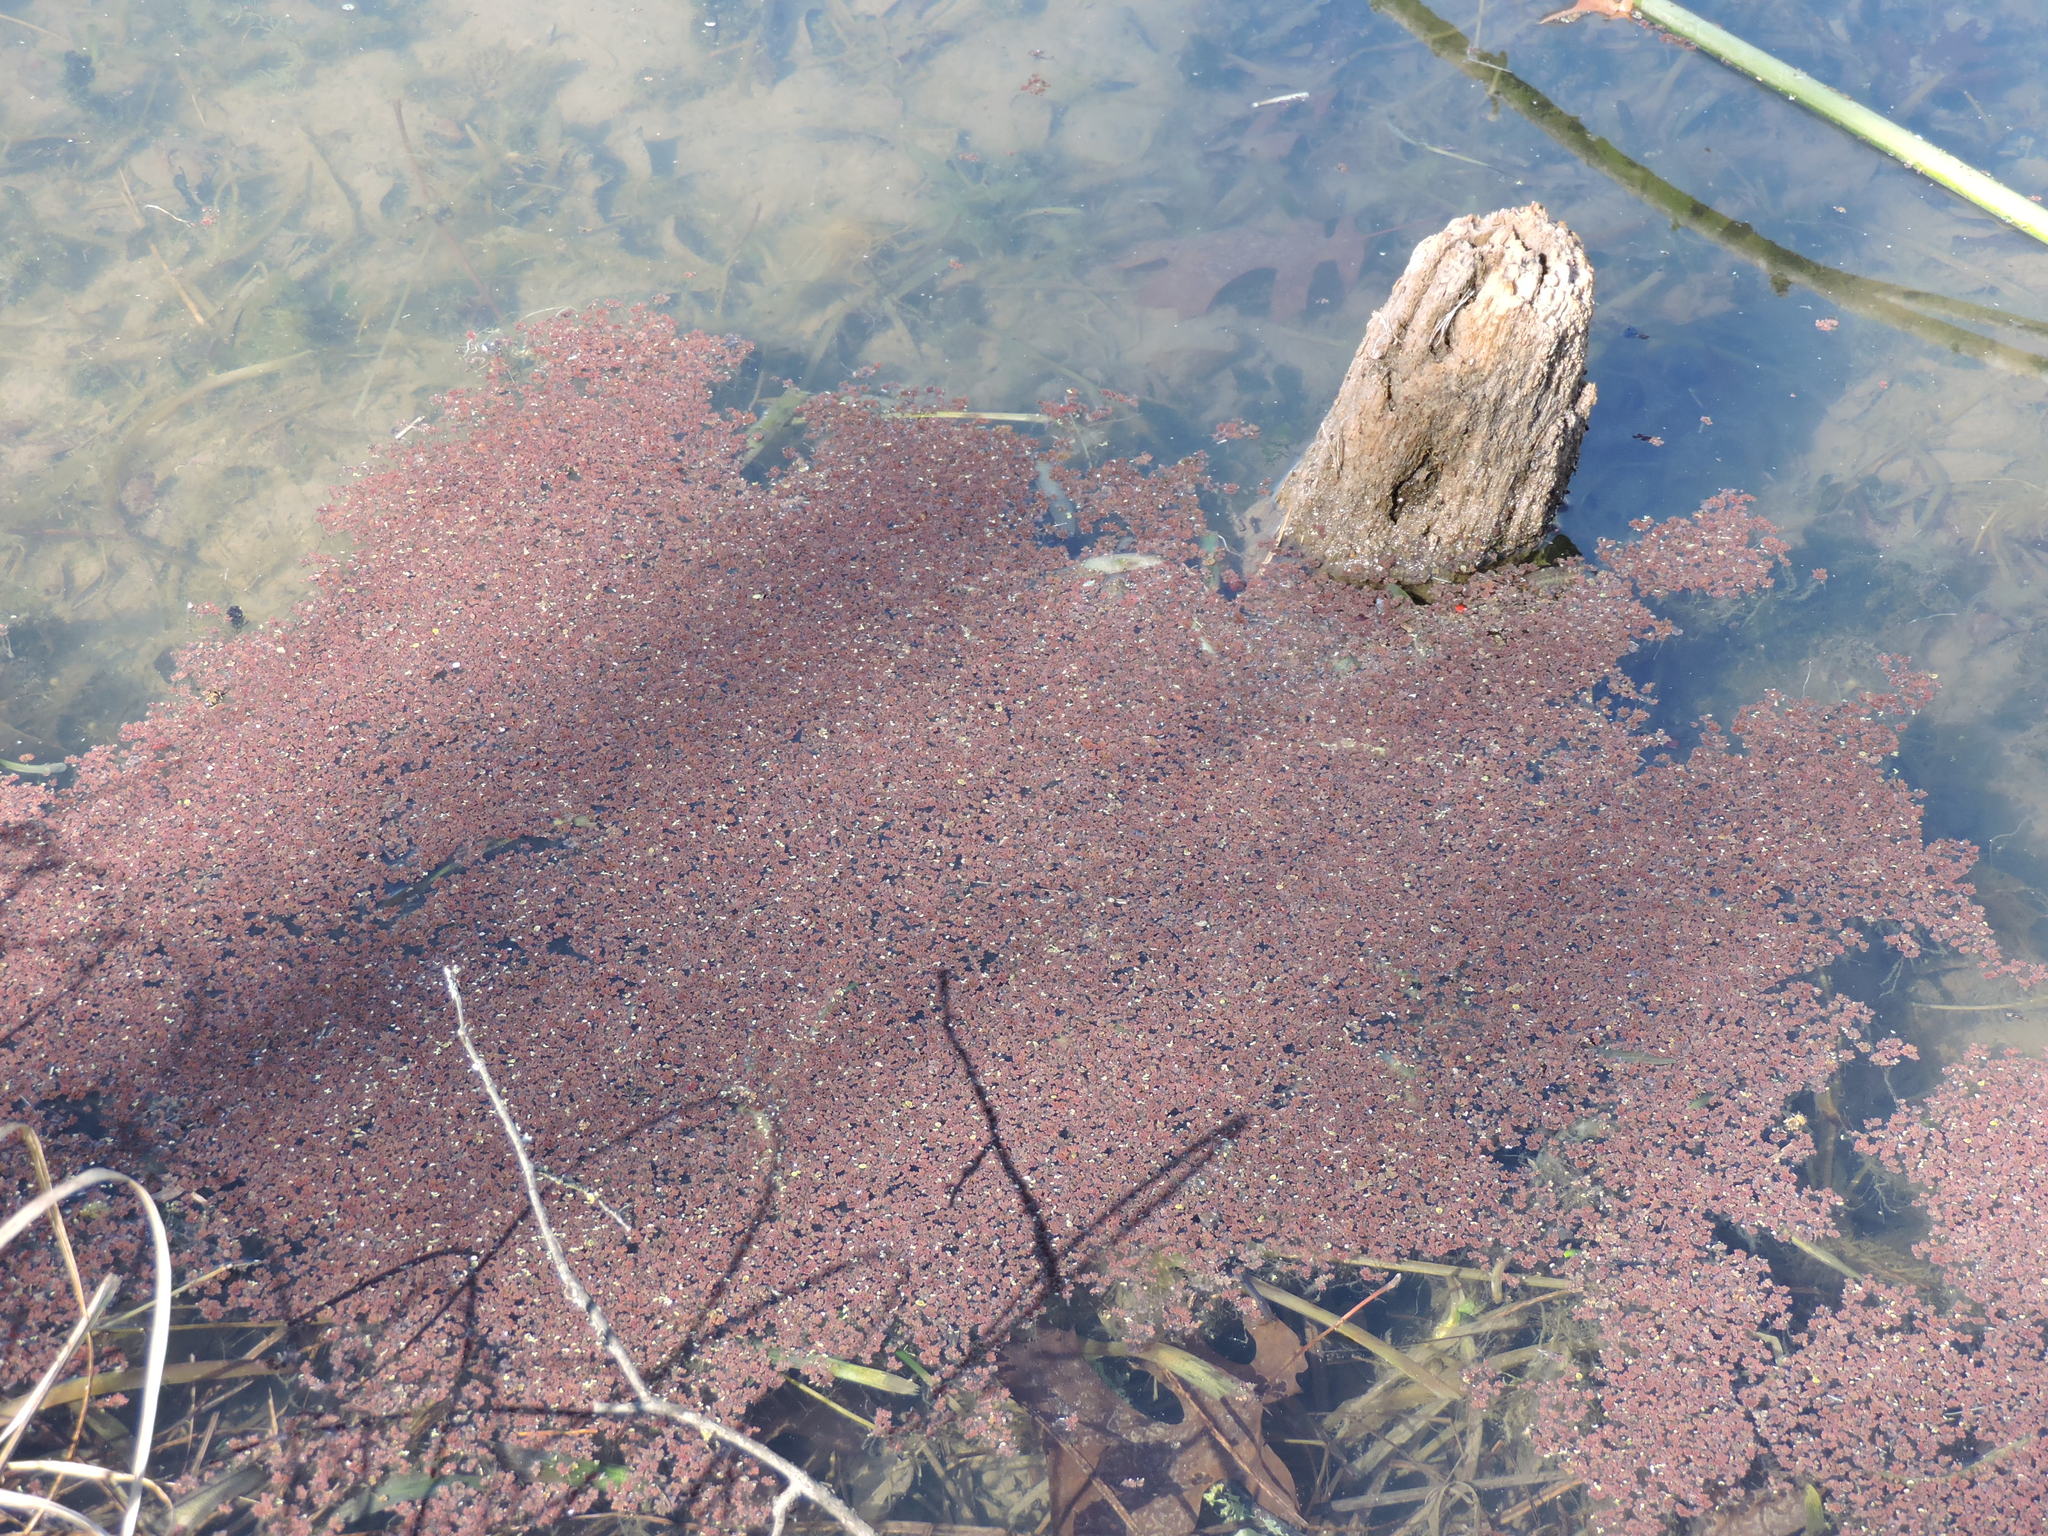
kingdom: Plantae
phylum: Tracheophyta
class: Polypodiopsida
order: Salviniales
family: Salviniaceae
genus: Azolla
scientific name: Azolla caroliniana
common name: Carolina mosquitofern
